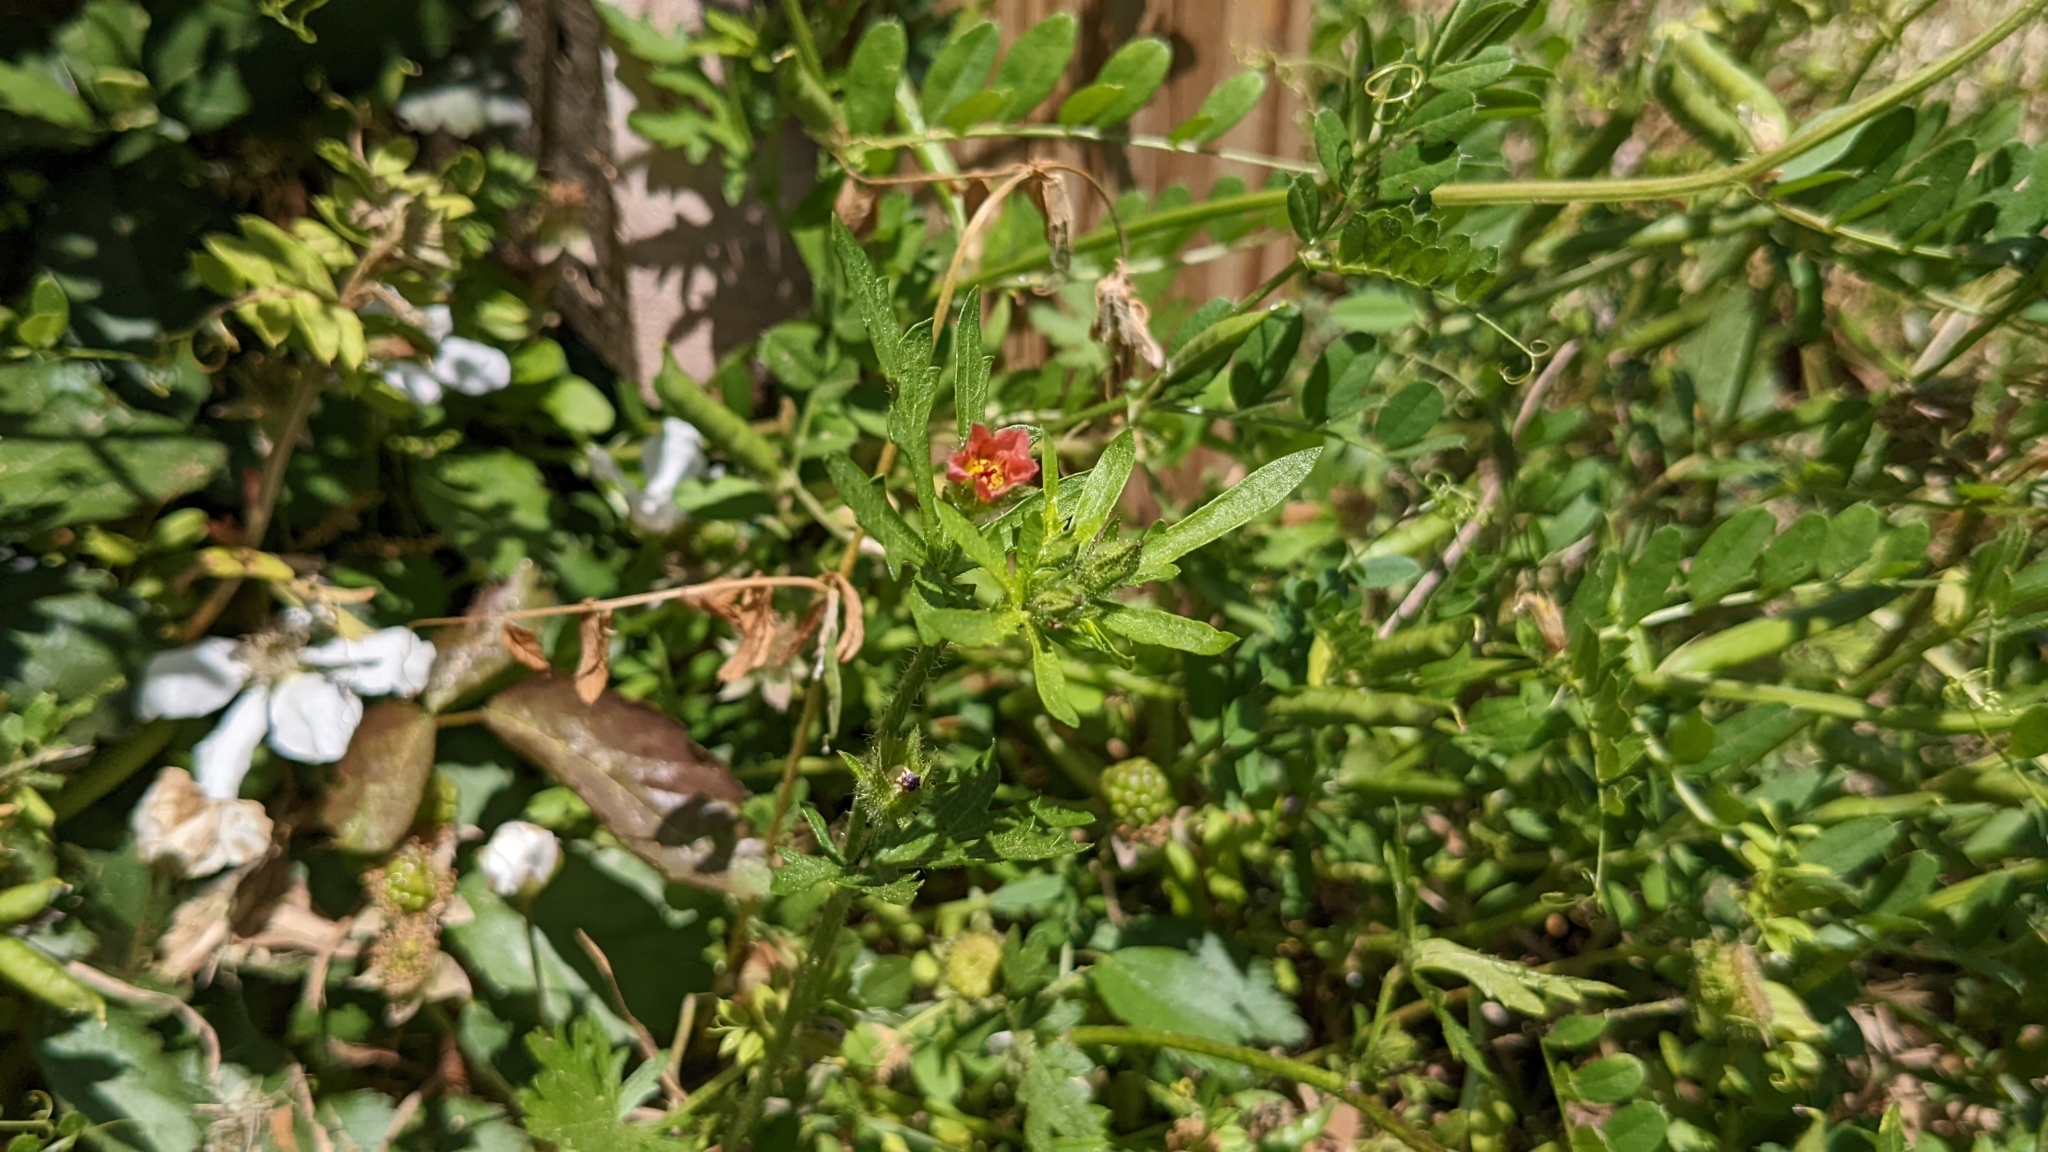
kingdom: Plantae
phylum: Tracheophyta
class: Magnoliopsida
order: Malvales
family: Malvaceae
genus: Modiola
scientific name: Modiola caroliniana
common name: Carolina bristlemallow
